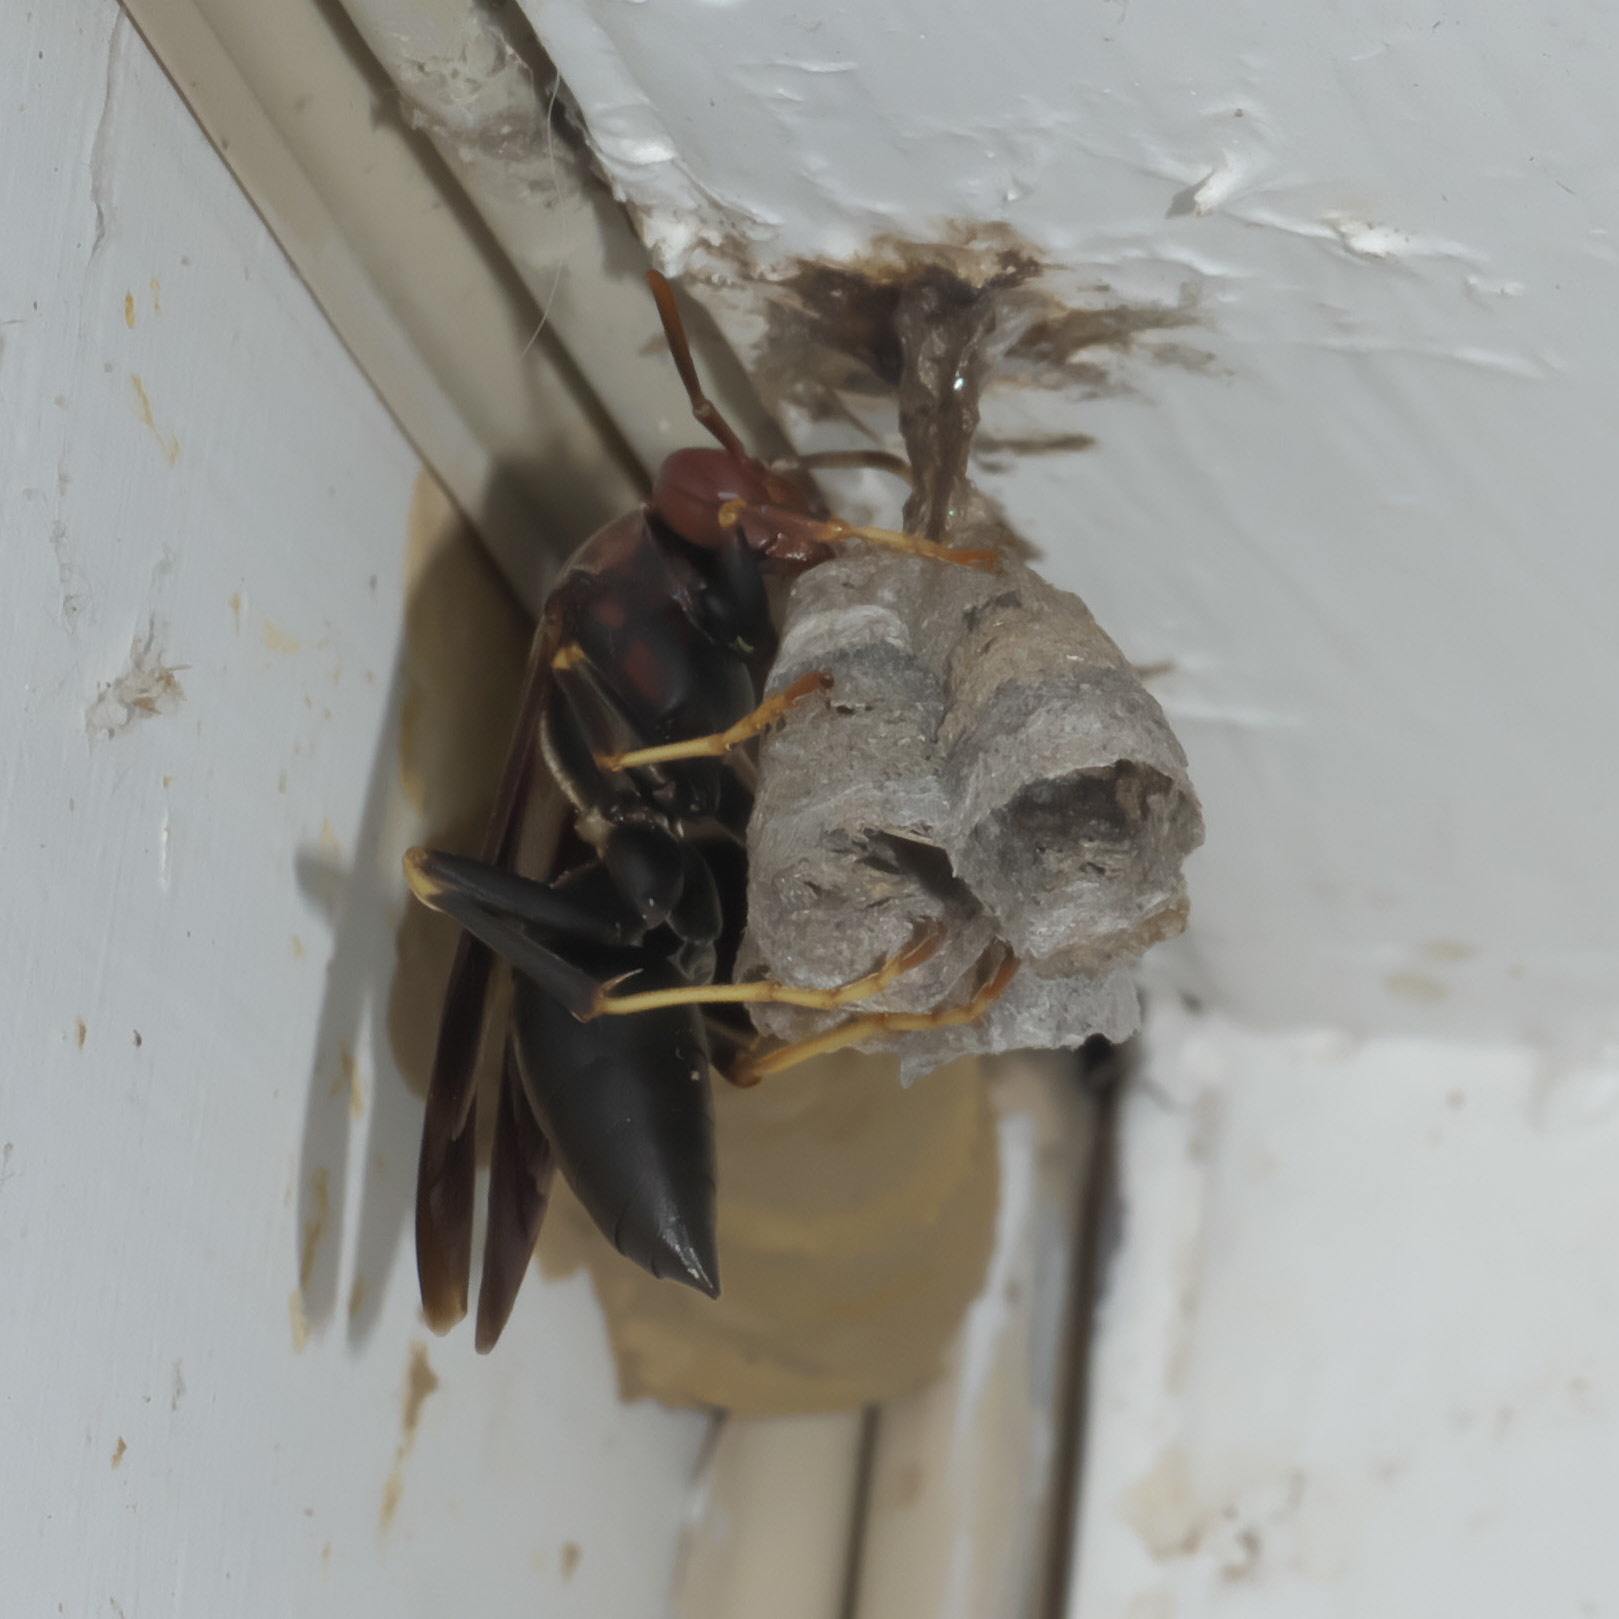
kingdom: Animalia
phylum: Arthropoda
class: Insecta
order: Hymenoptera
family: Eumenidae
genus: Polistes
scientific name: Polistes metricus
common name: Metric paper wasp
